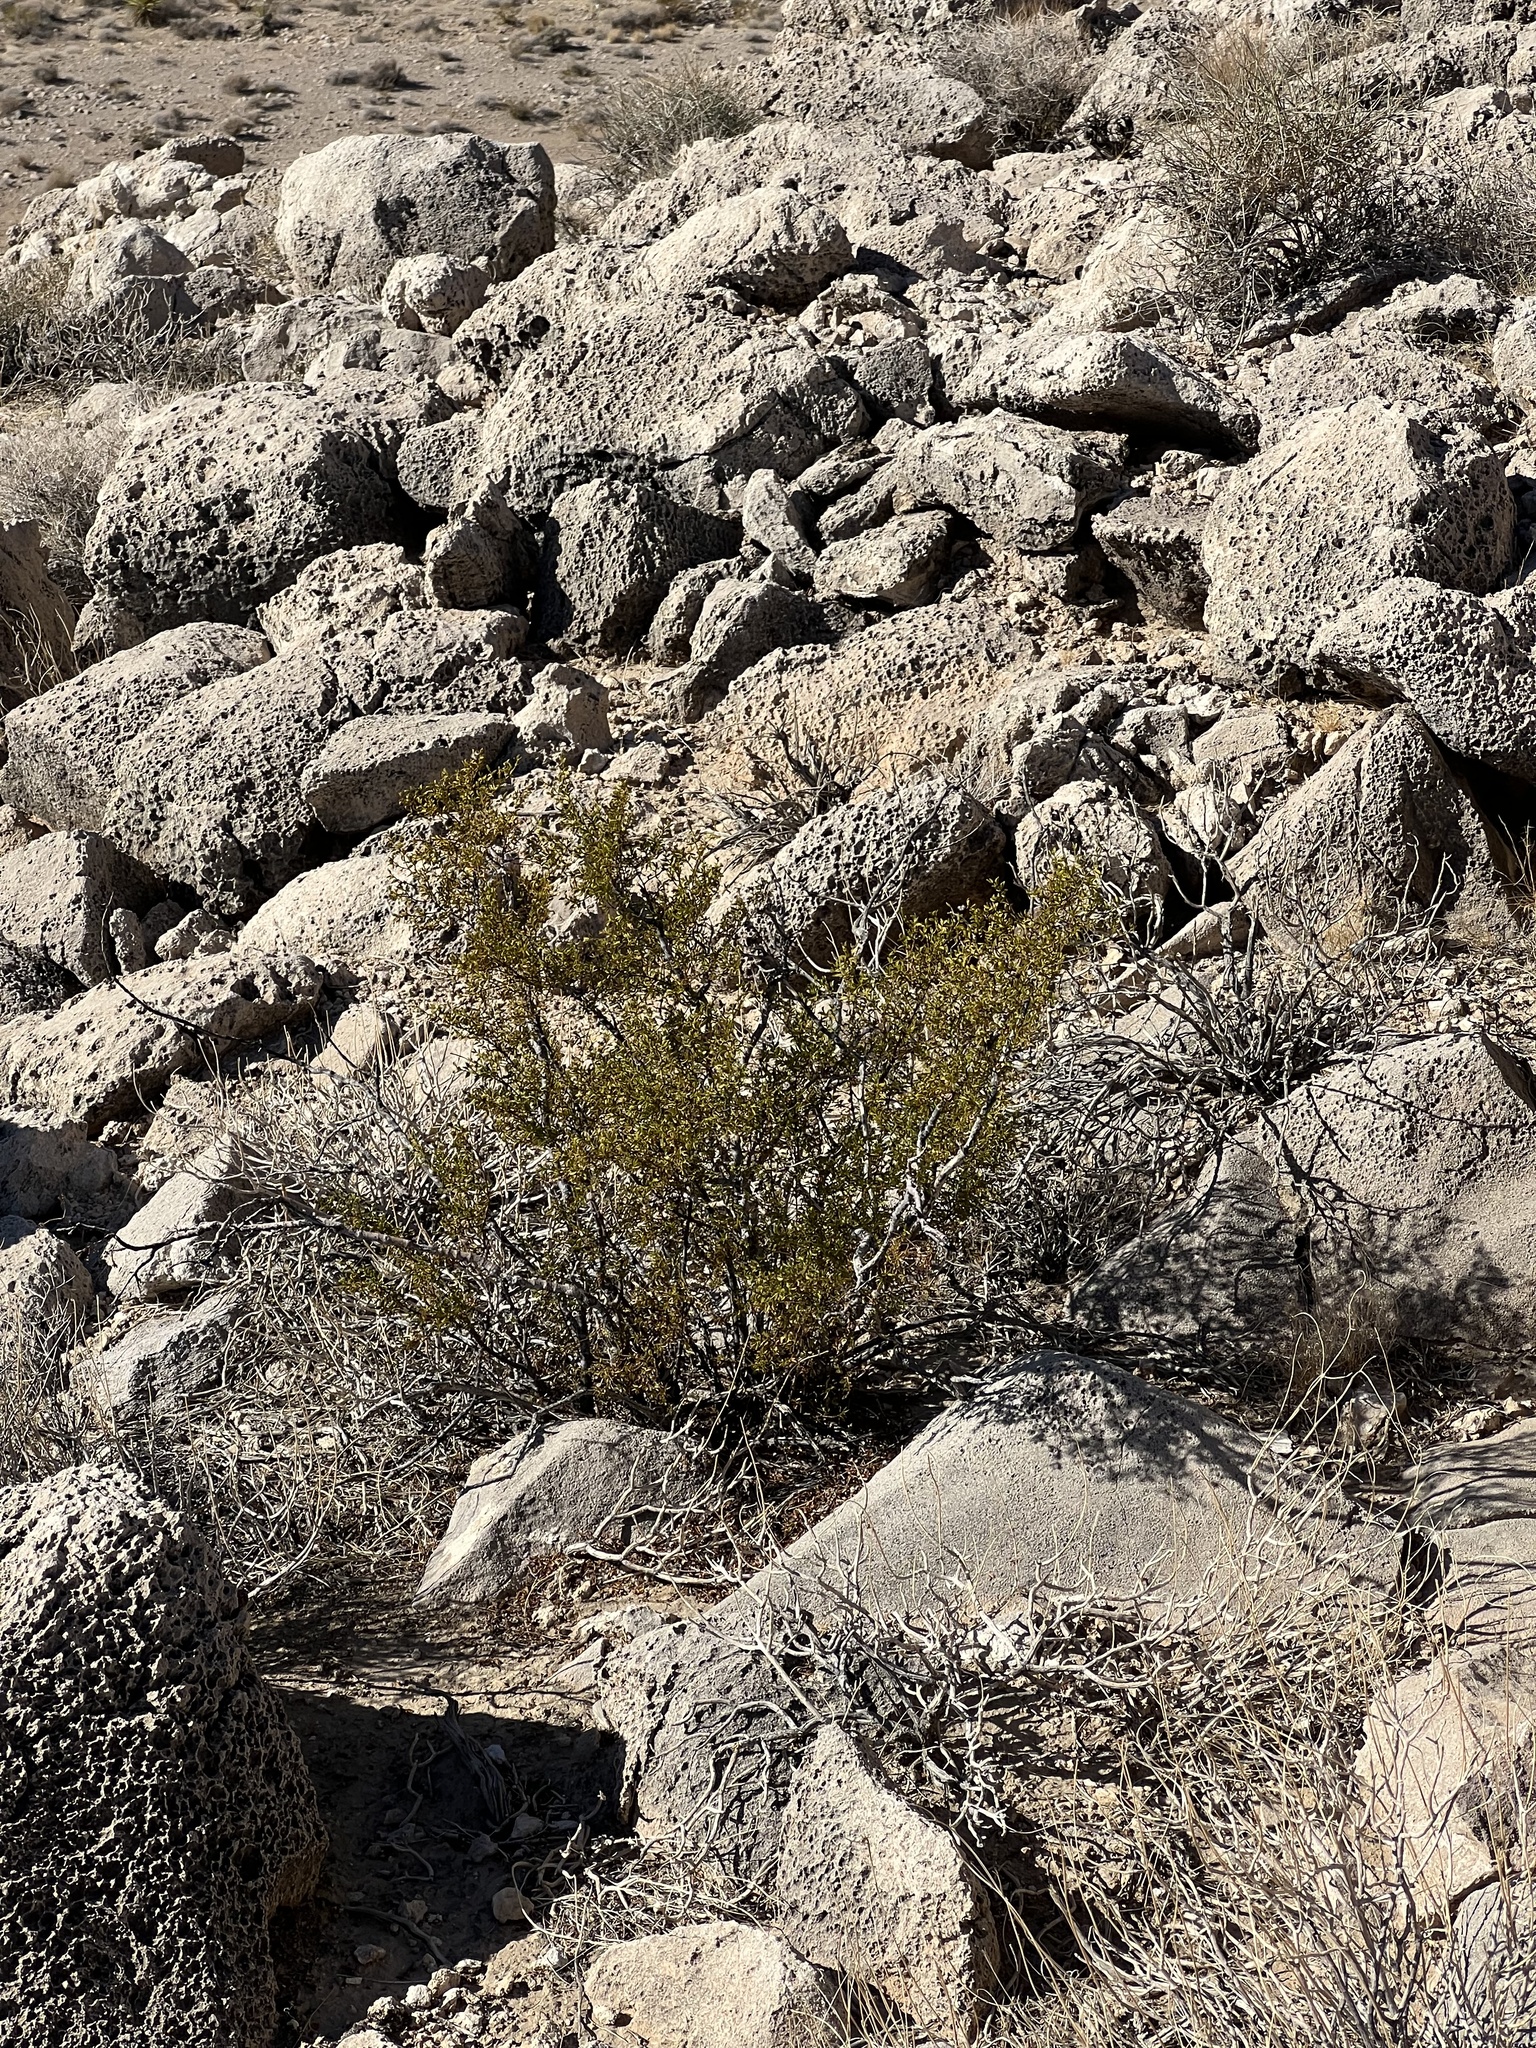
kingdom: Plantae
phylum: Tracheophyta
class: Magnoliopsida
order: Zygophyllales
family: Zygophyllaceae
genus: Larrea
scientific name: Larrea tridentata
